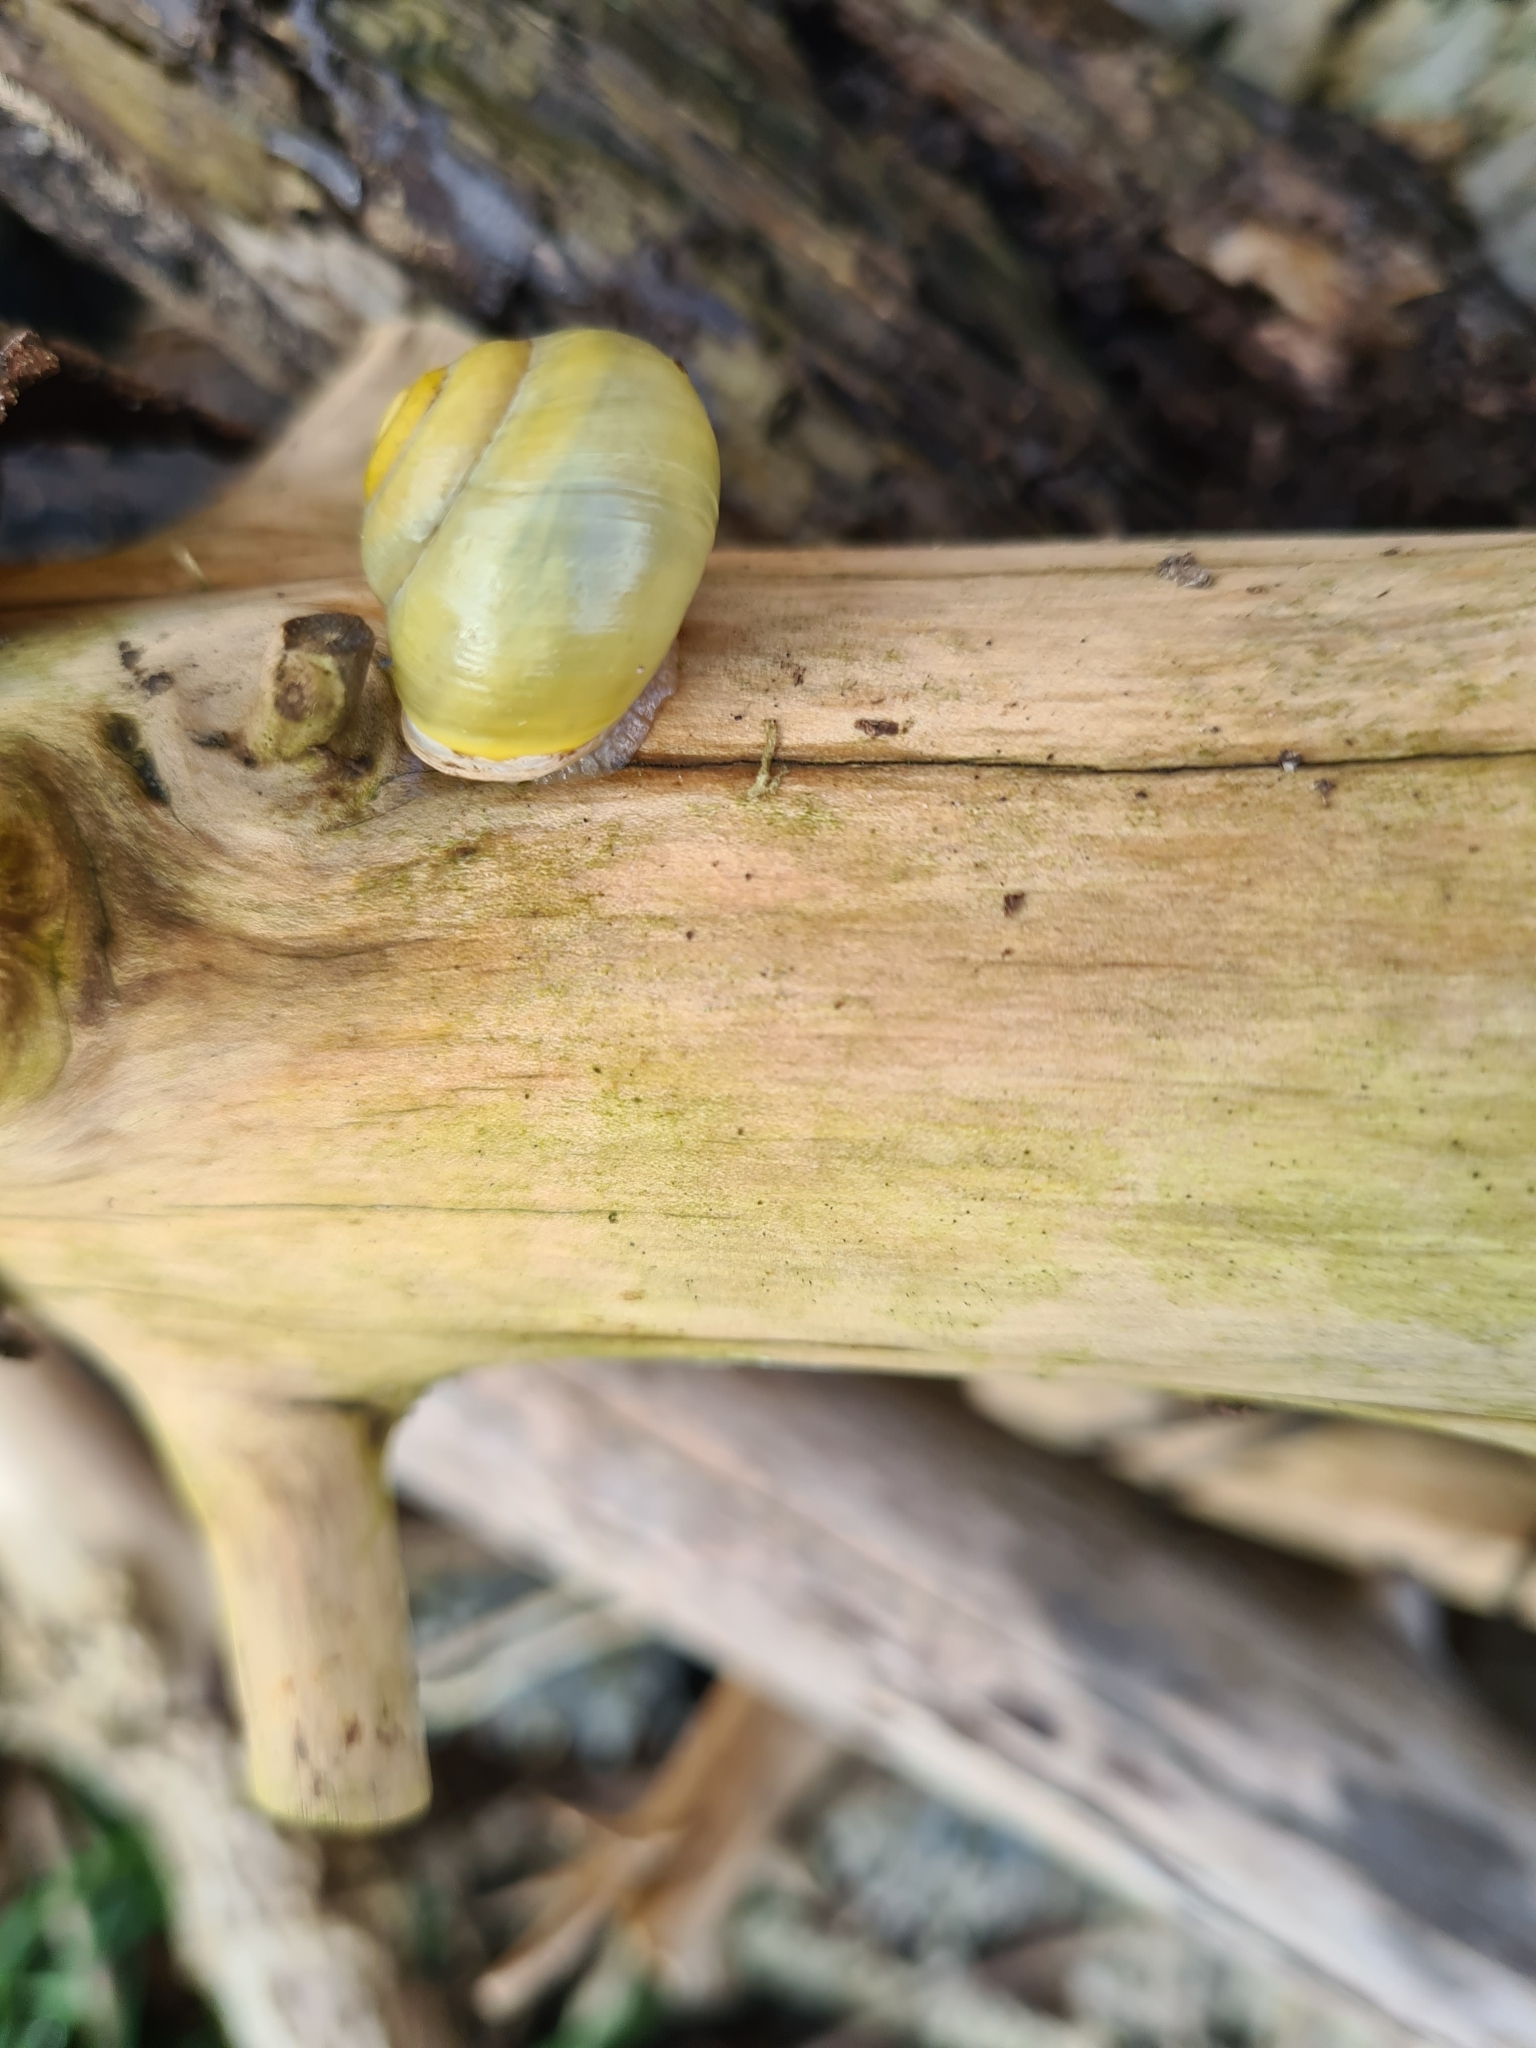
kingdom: Animalia
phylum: Mollusca
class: Gastropoda
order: Stylommatophora
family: Helicidae
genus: Cepaea
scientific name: Cepaea hortensis
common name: White-lip gardensnail
